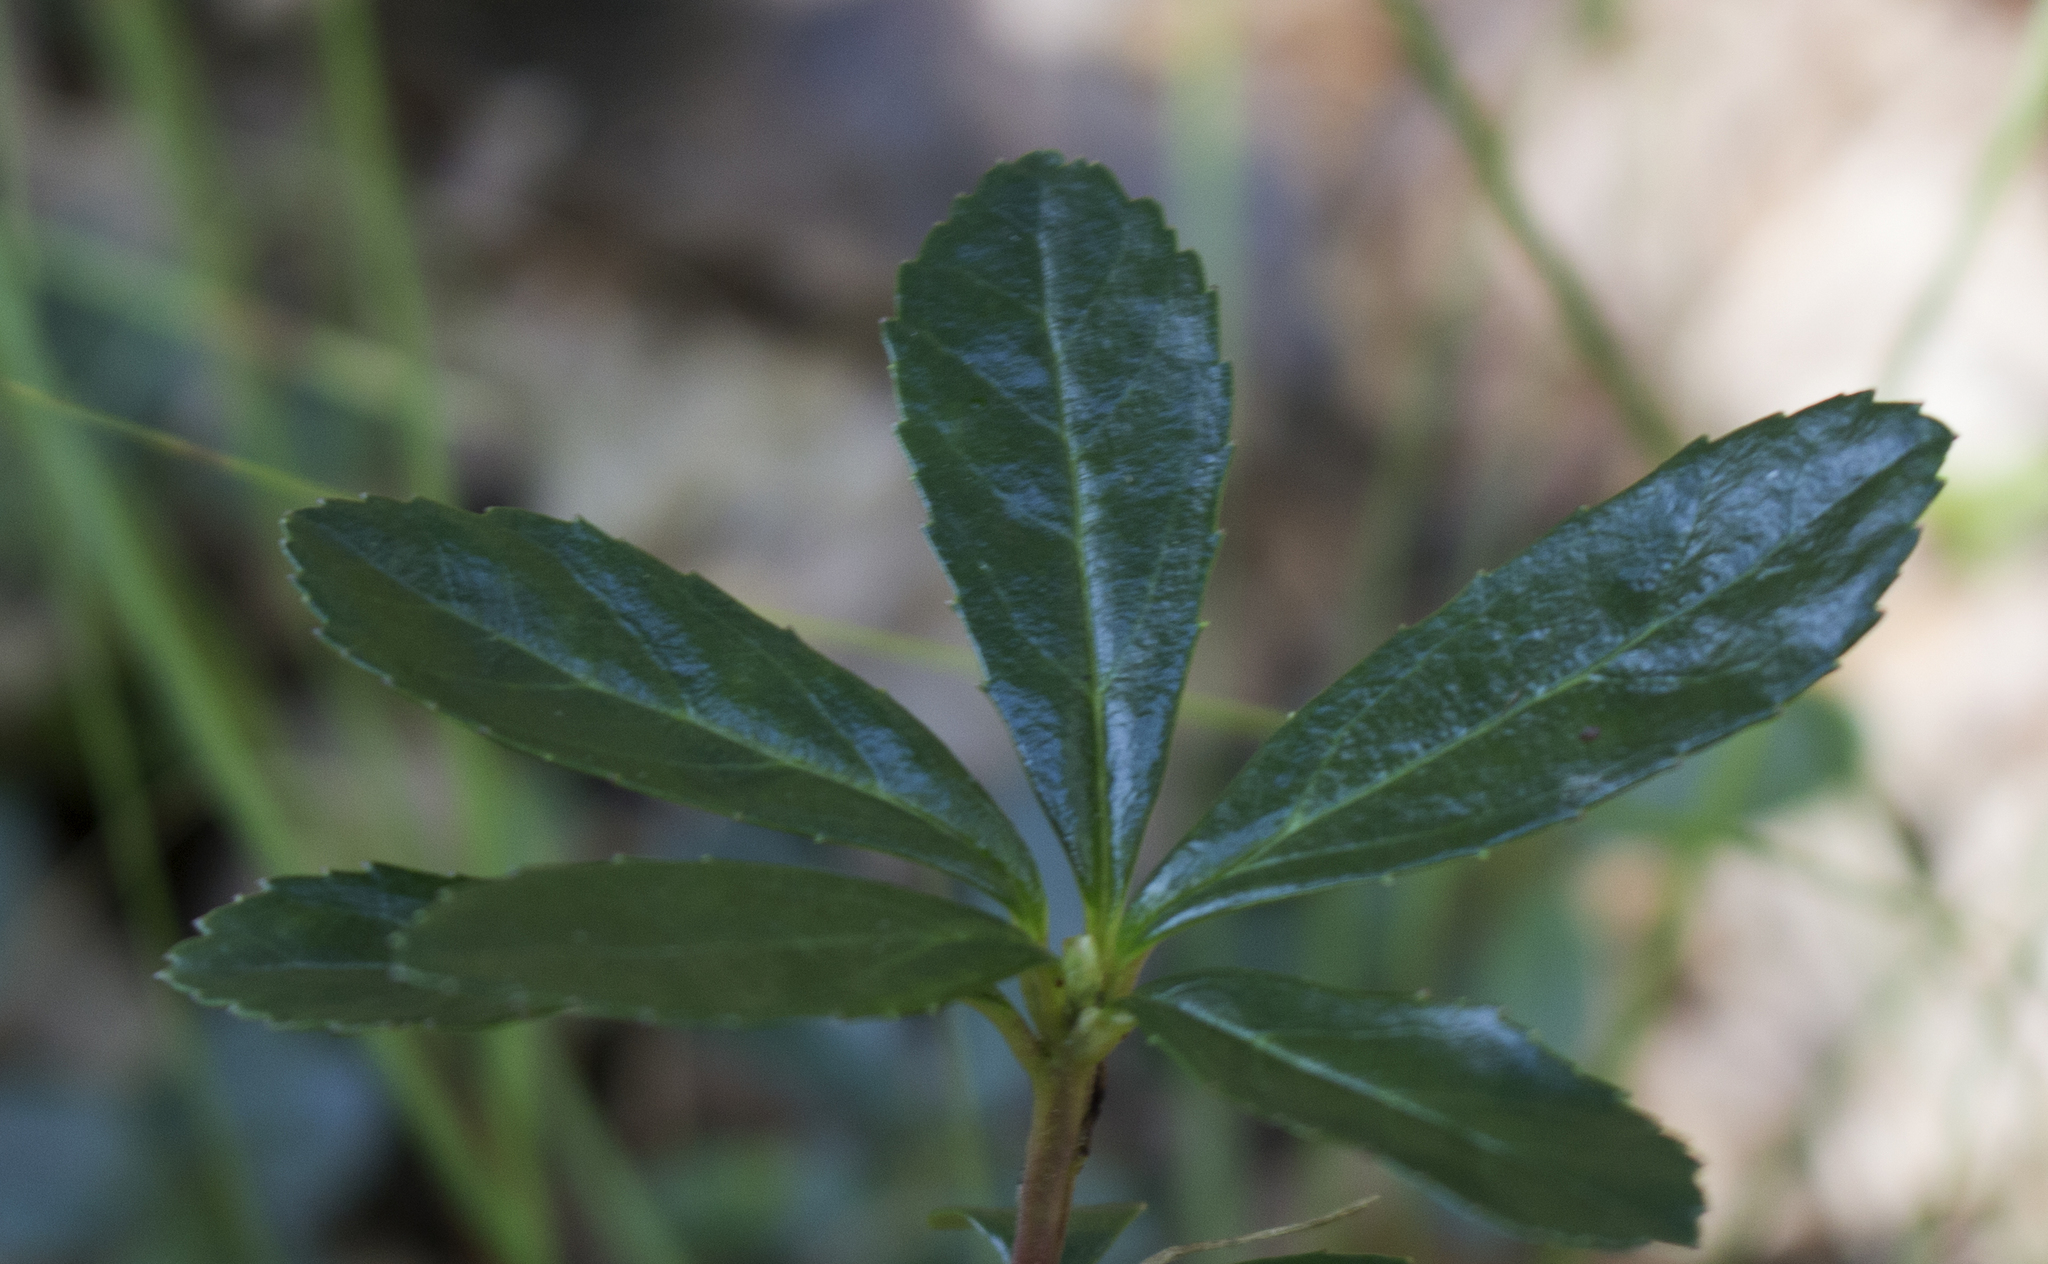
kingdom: Plantae
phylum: Tracheophyta
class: Magnoliopsida
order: Ericales
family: Ericaceae
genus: Chimaphila
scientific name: Chimaphila umbellata
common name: Pipsissewa
